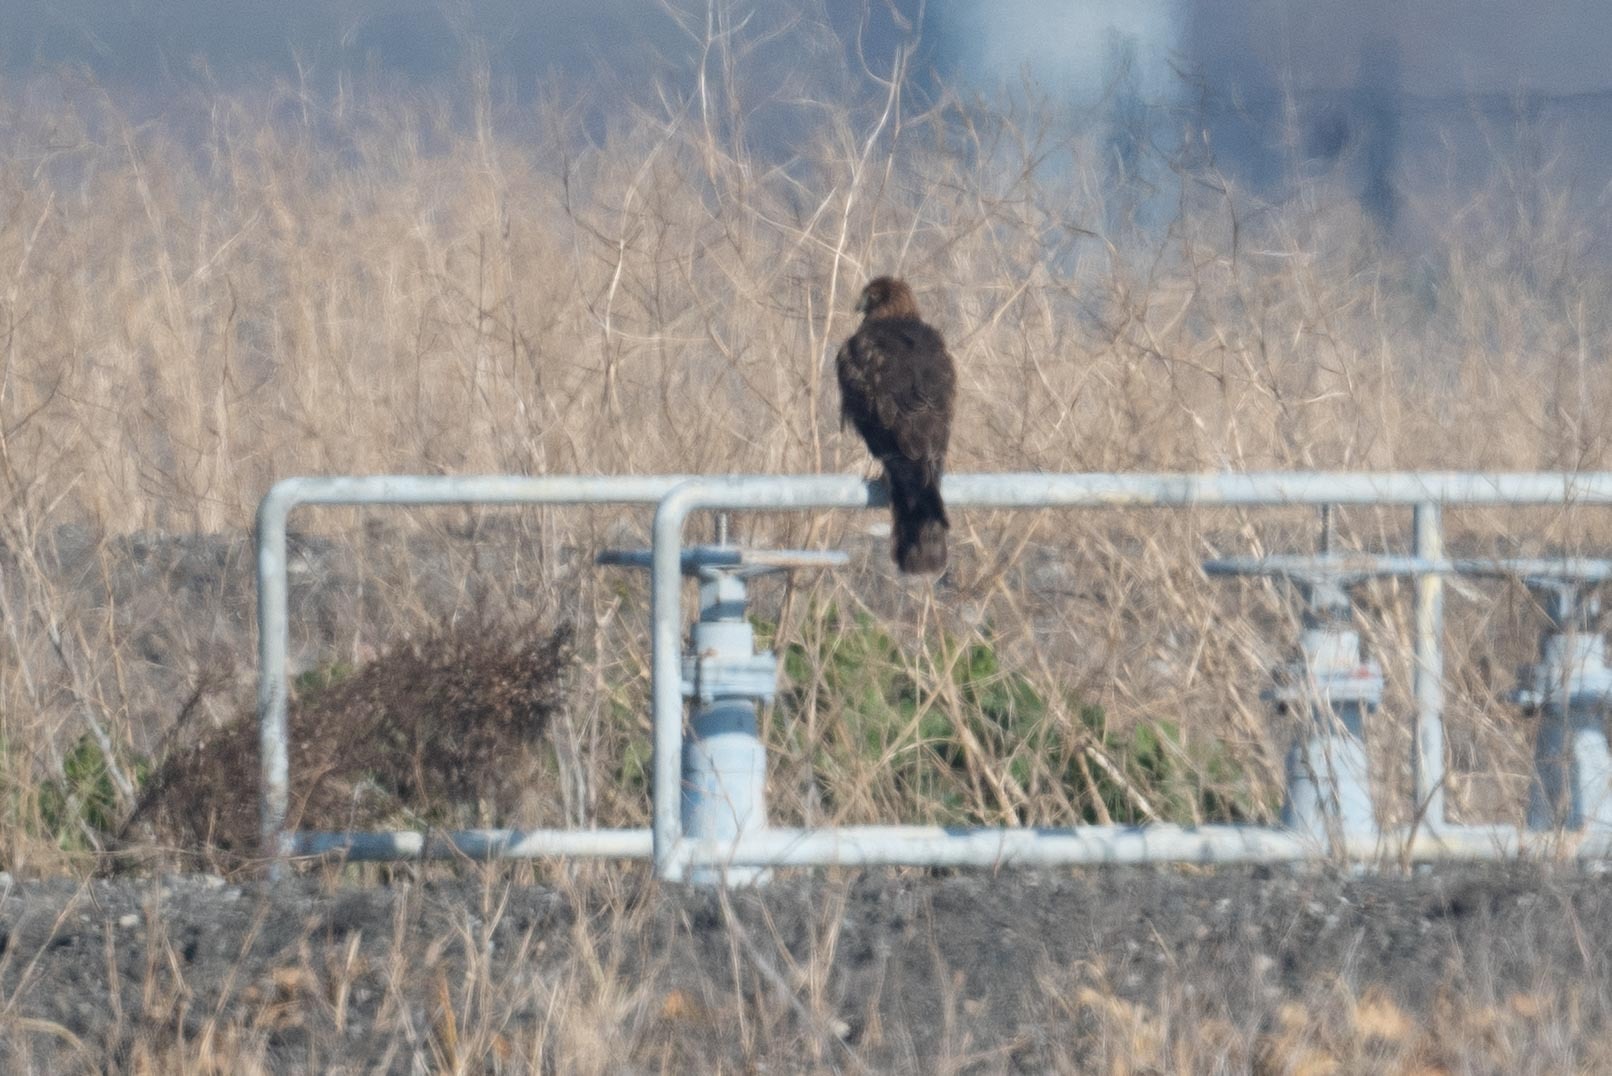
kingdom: Animalia
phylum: Chordata
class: Aves
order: Accipitriformes
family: Accipitridae
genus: Circus
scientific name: Circus cyaneus
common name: Hen harrier
